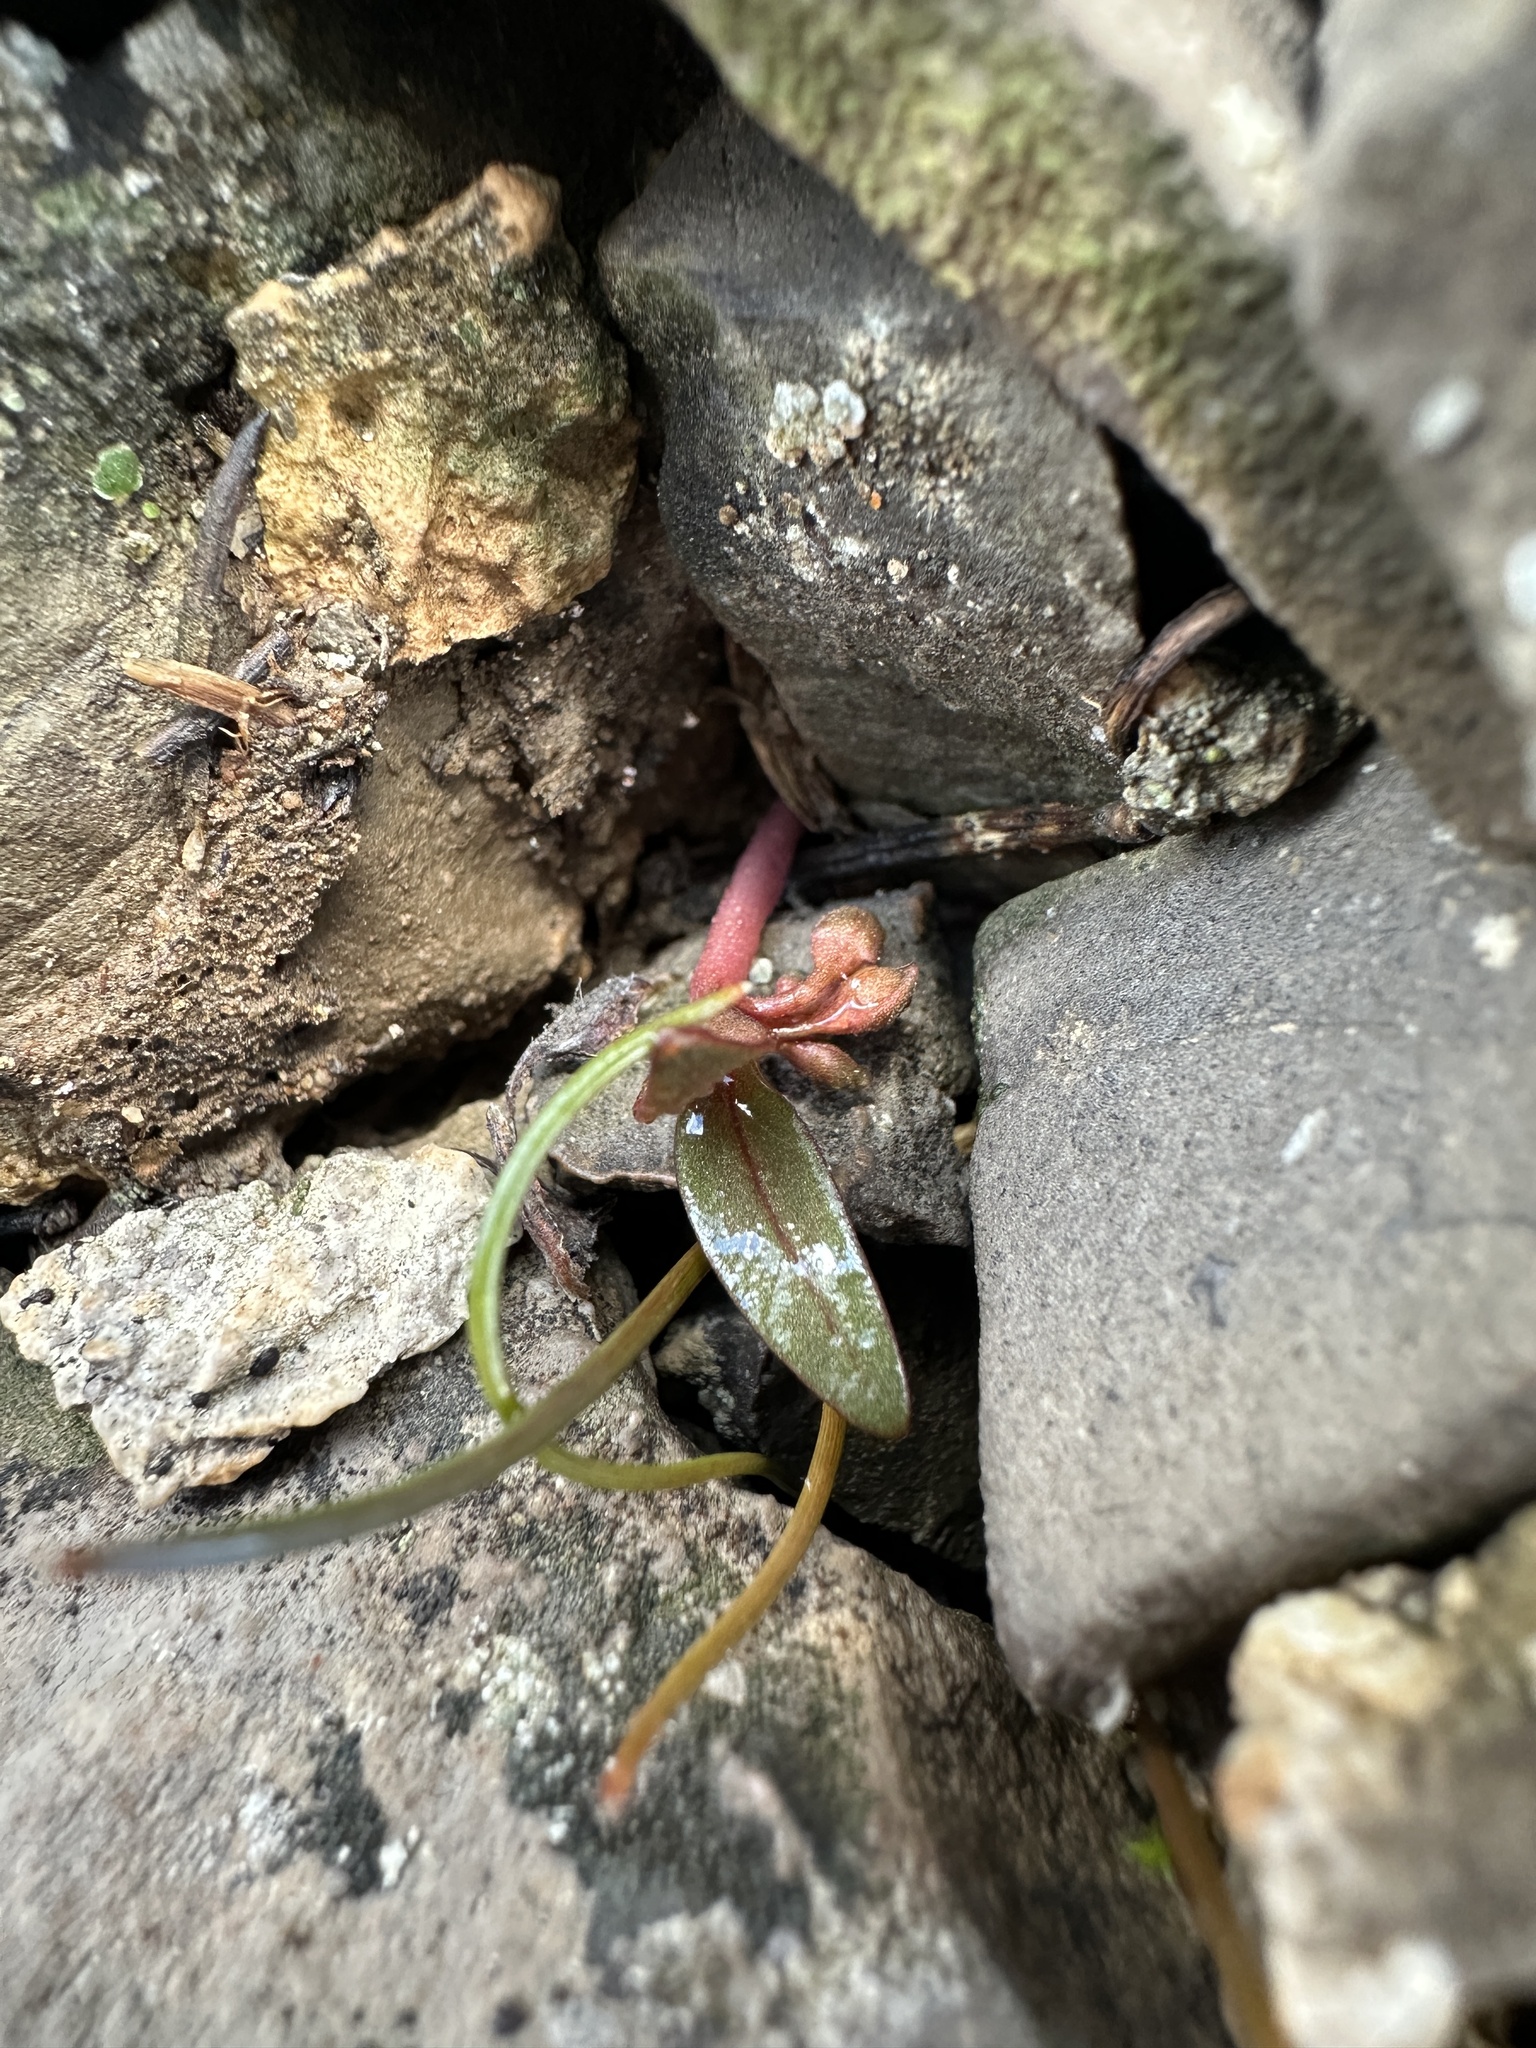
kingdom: Plantae
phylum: Tracheophyta
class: Magnoliopsida
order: Caryophyllales
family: Montiaceae
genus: Claytonia
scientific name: Claytonia panamintensis
